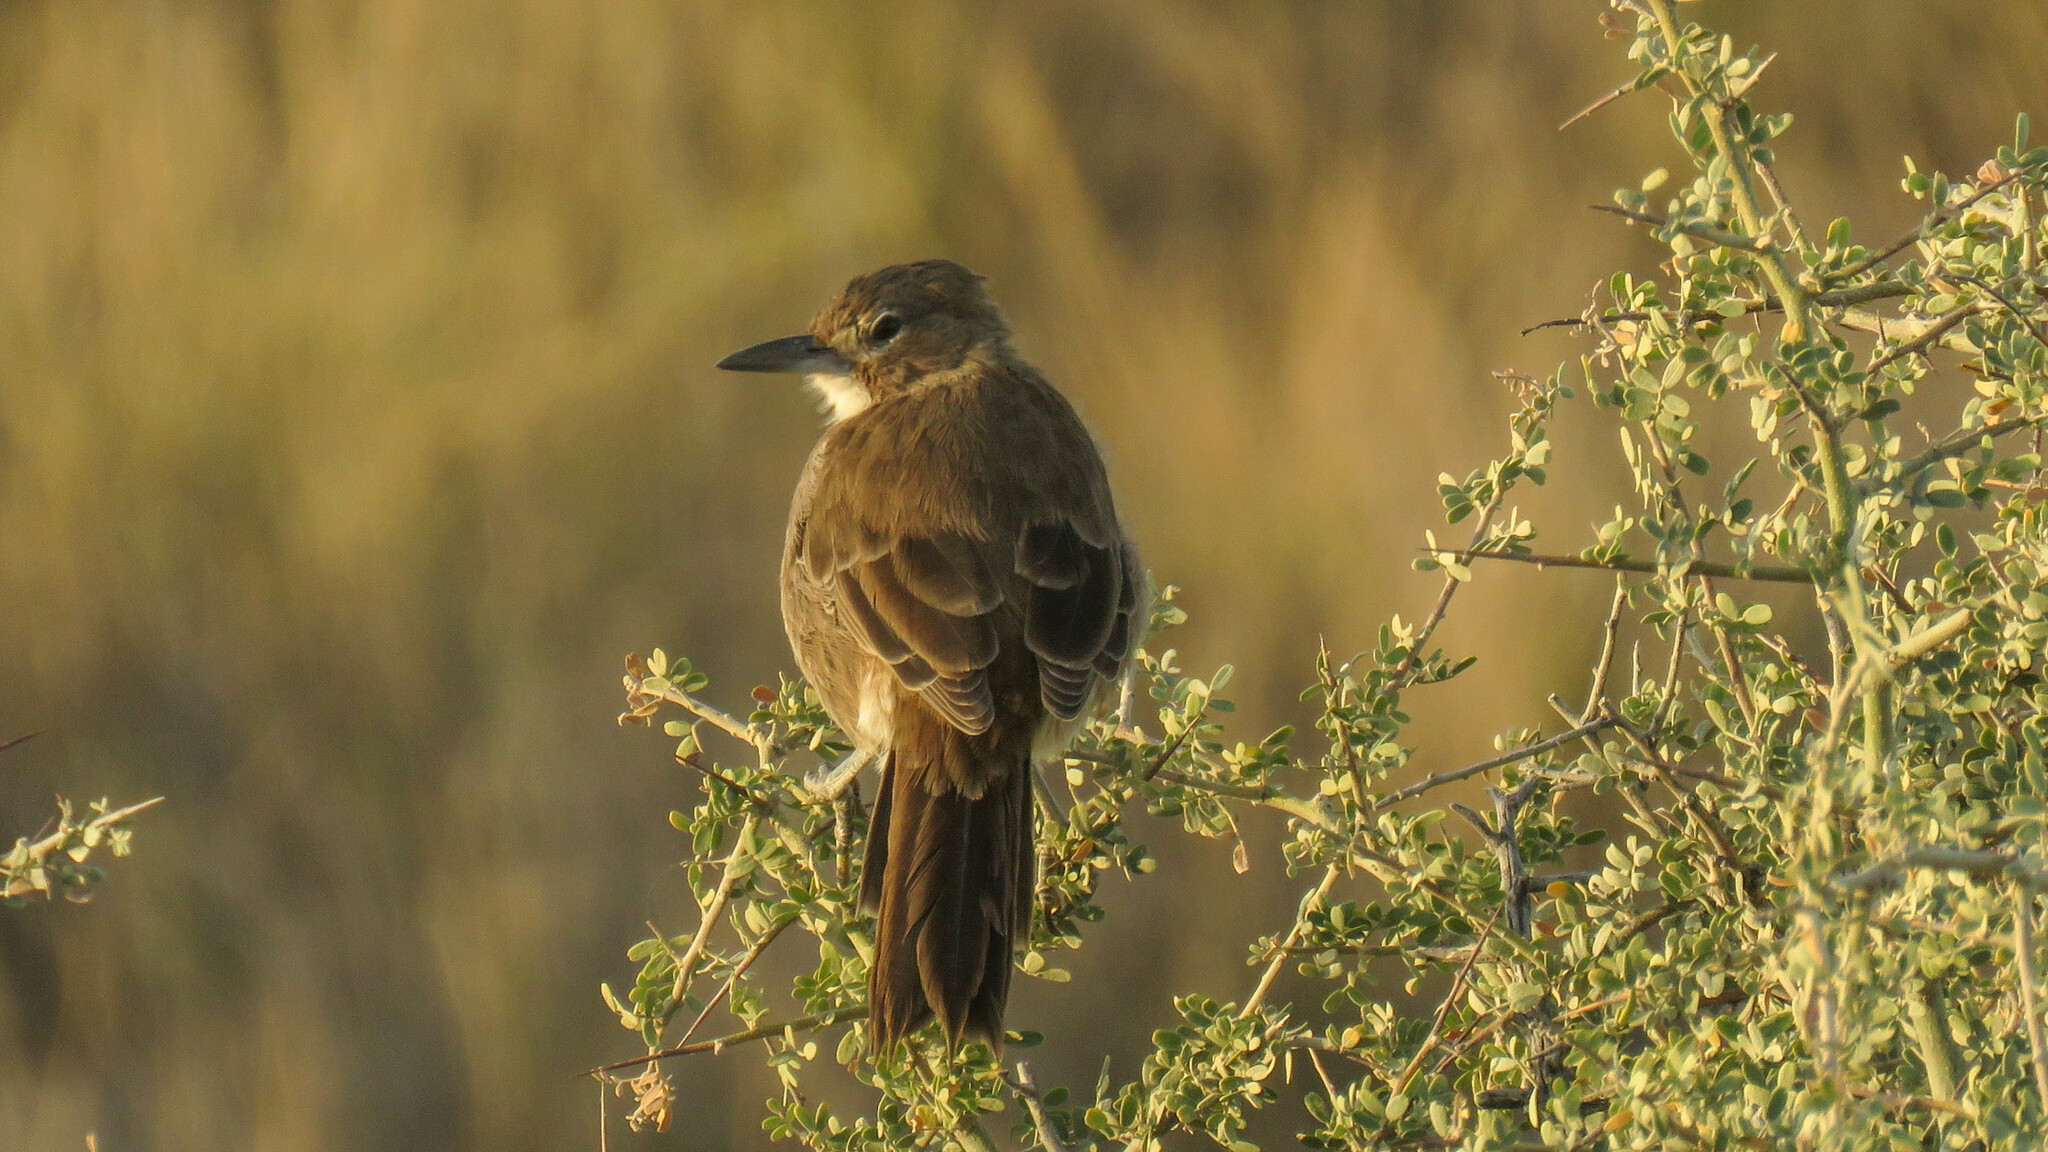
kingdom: Animalia
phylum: Chordata
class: Aves
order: Passeriformes
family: Furnariidae
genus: Pseudoseisura
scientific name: Pseudoseisura gutturalis
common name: White-throated cacholote
